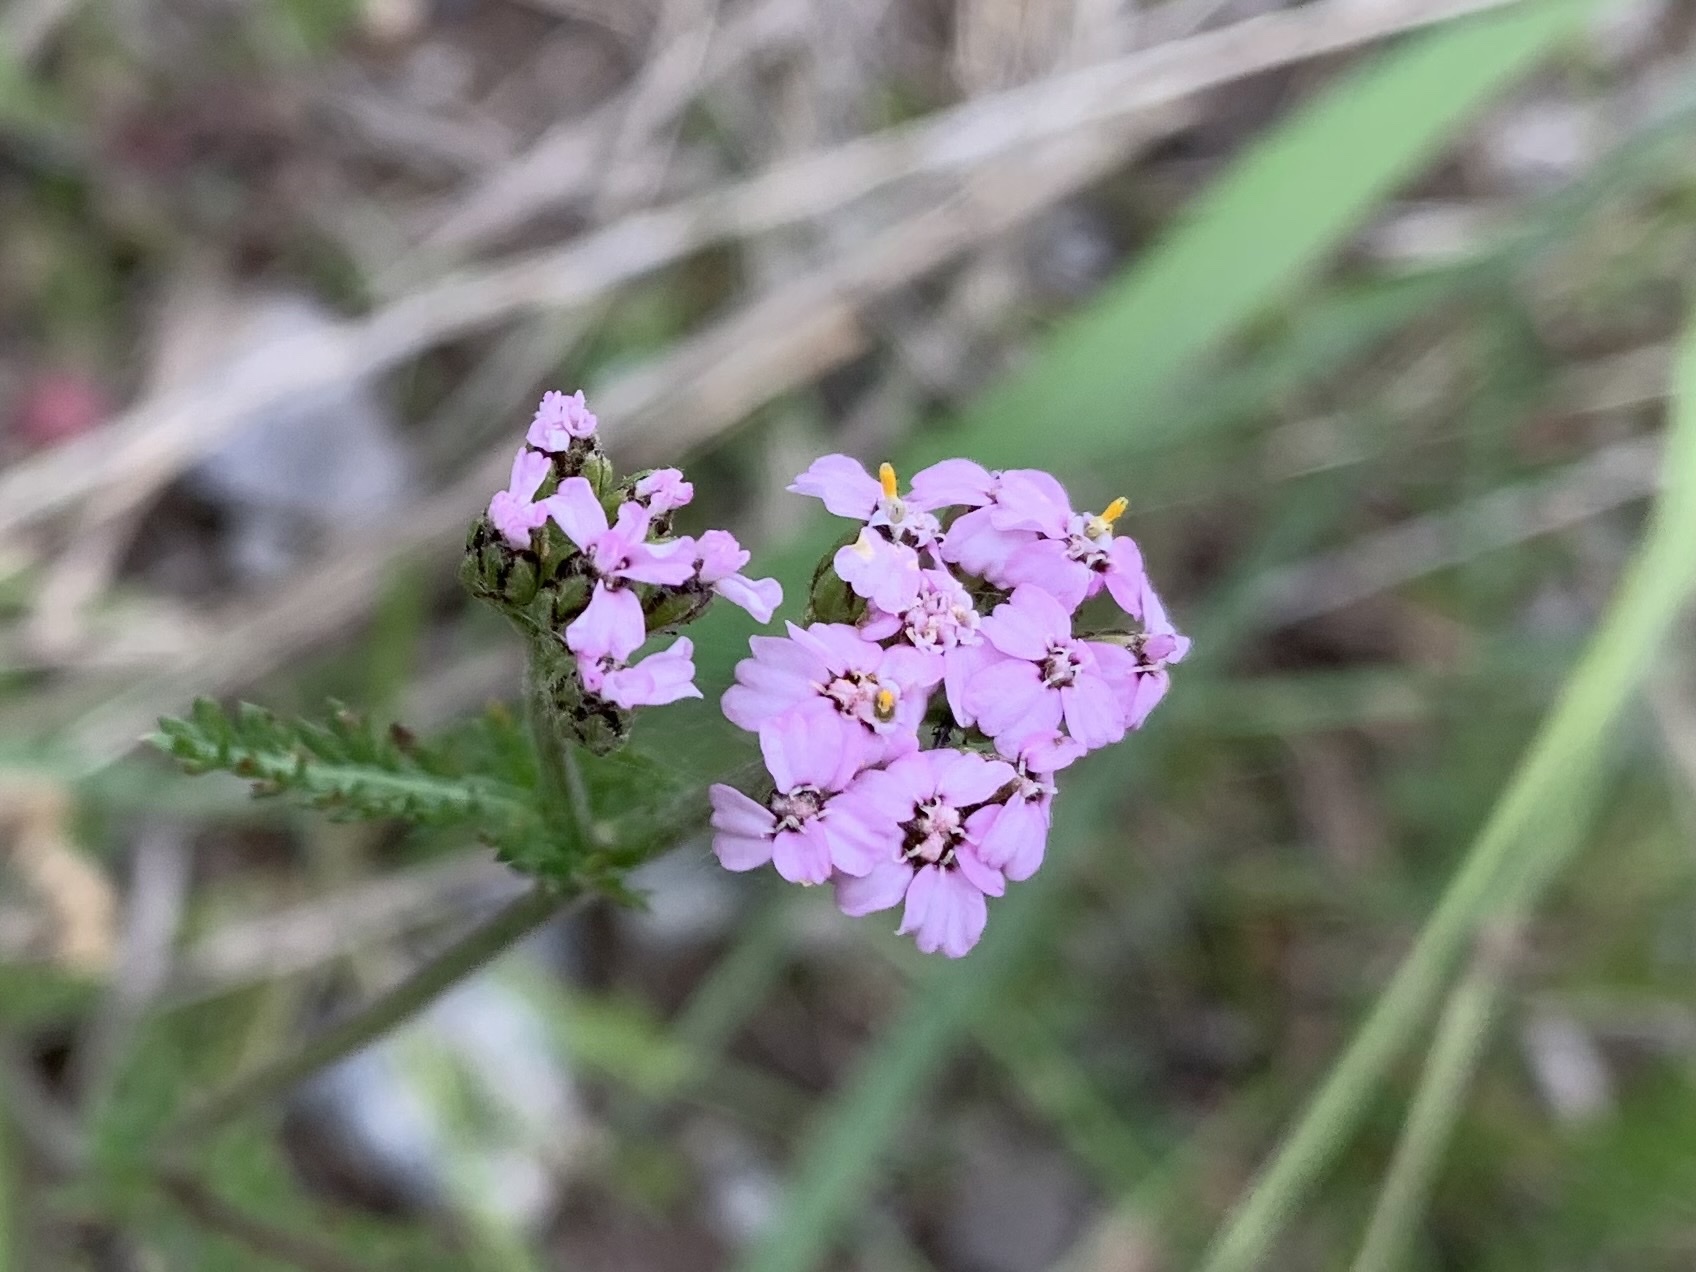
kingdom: Plantae
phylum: Tracheophyta
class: Magnoliopsida
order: Asterales
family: Asteraceae
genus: Achillea
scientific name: Achillea millefolium
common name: Yarrow
